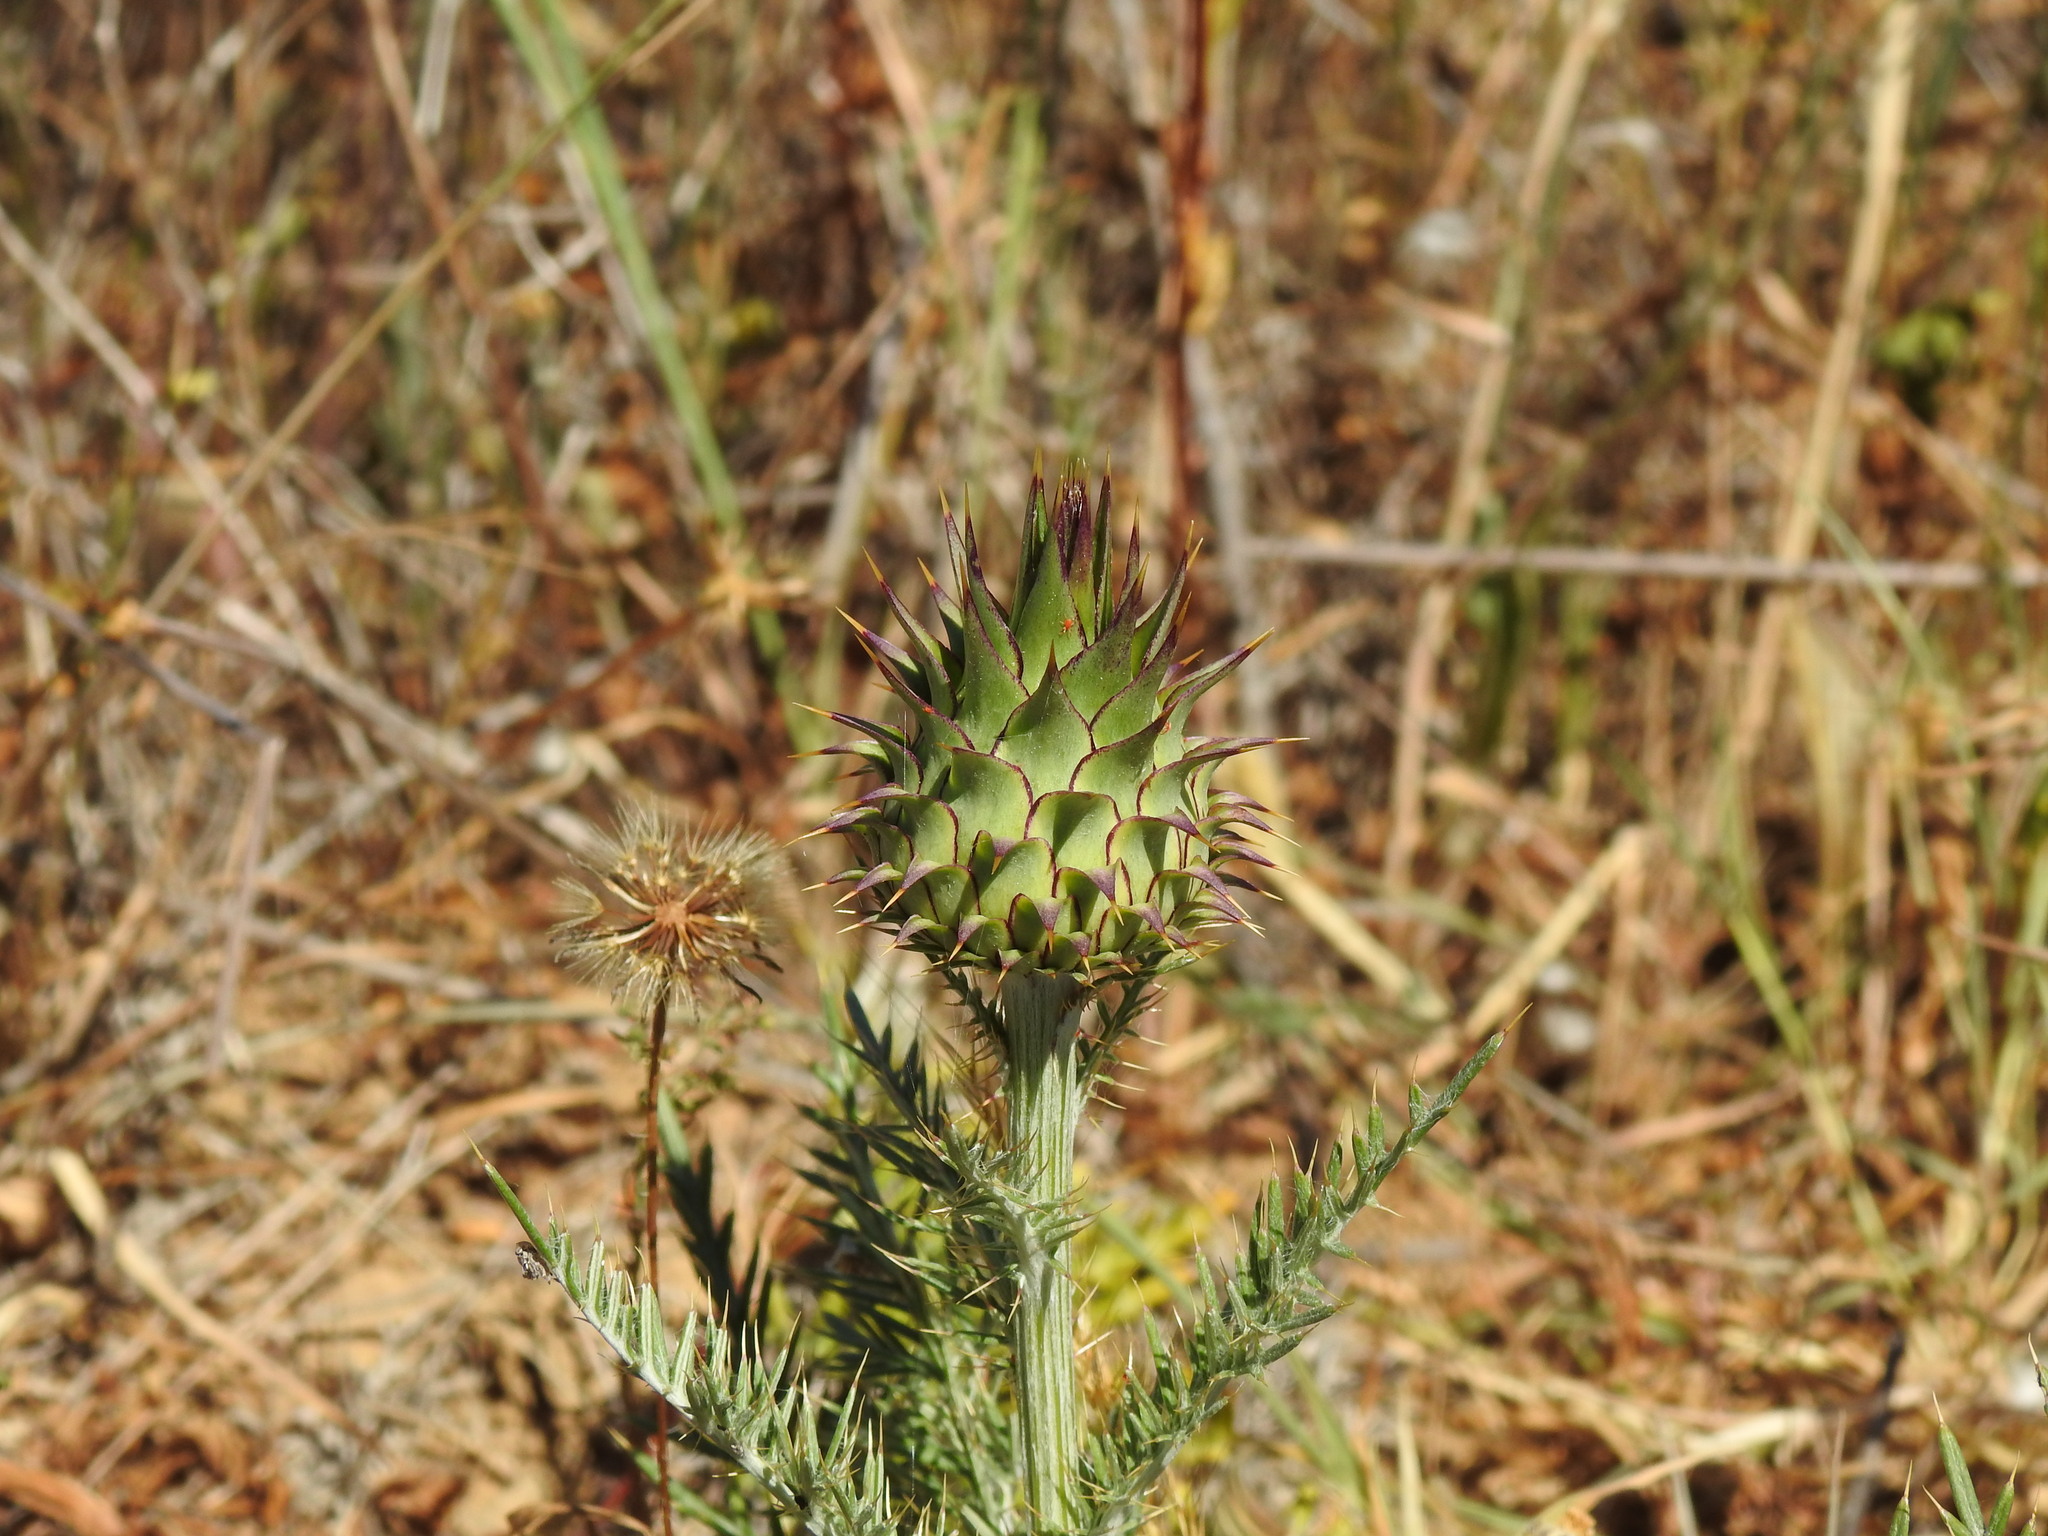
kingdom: Plantae
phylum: Tracheophyta
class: Magnoliopsida
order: Asterales
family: Asteraceae
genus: Cynara
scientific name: Cynara humilis
